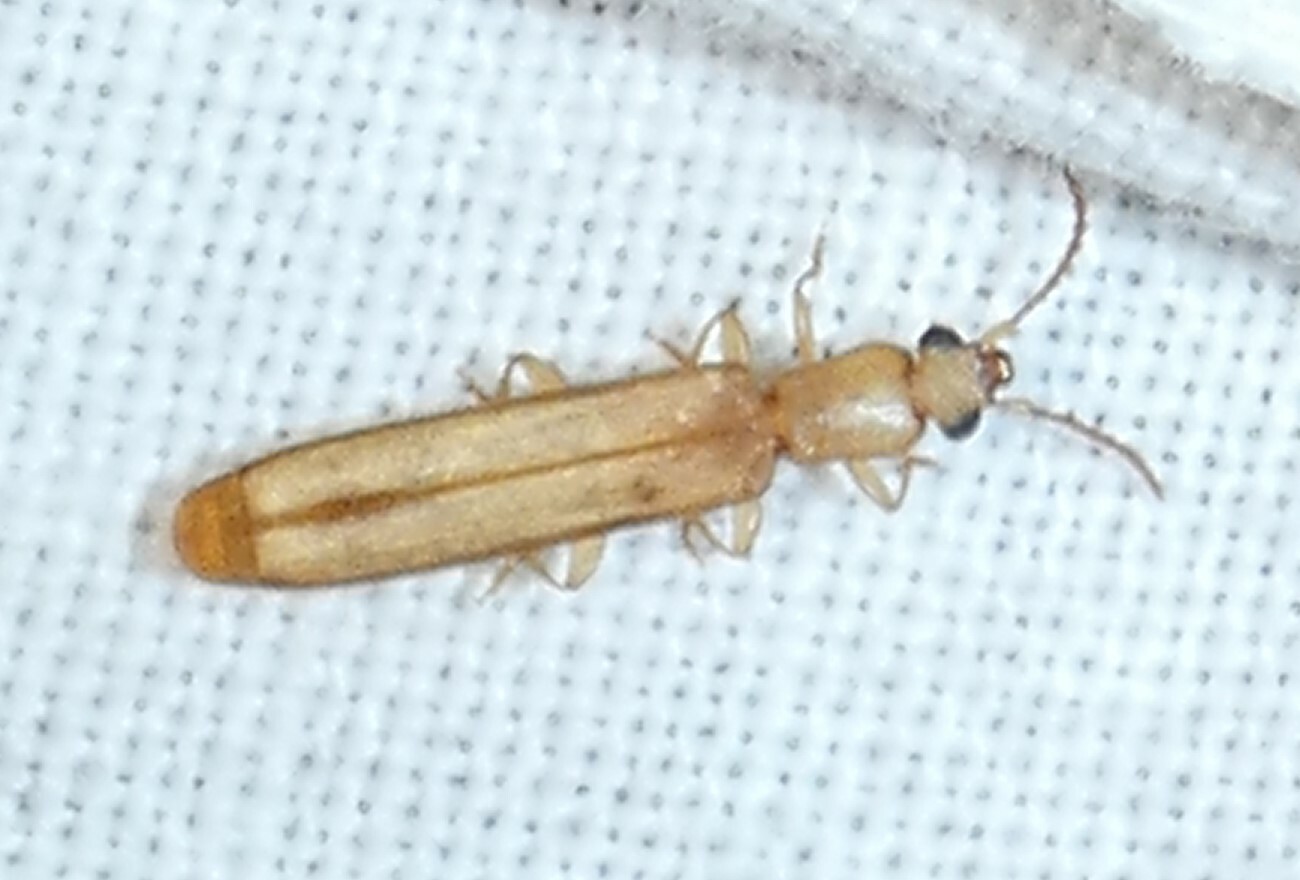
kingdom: Animalia
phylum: Arthropoda
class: Insecta
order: Coleoptera
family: Mycteridae
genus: Hemipeplus
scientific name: Hemipeplus marginipennis
